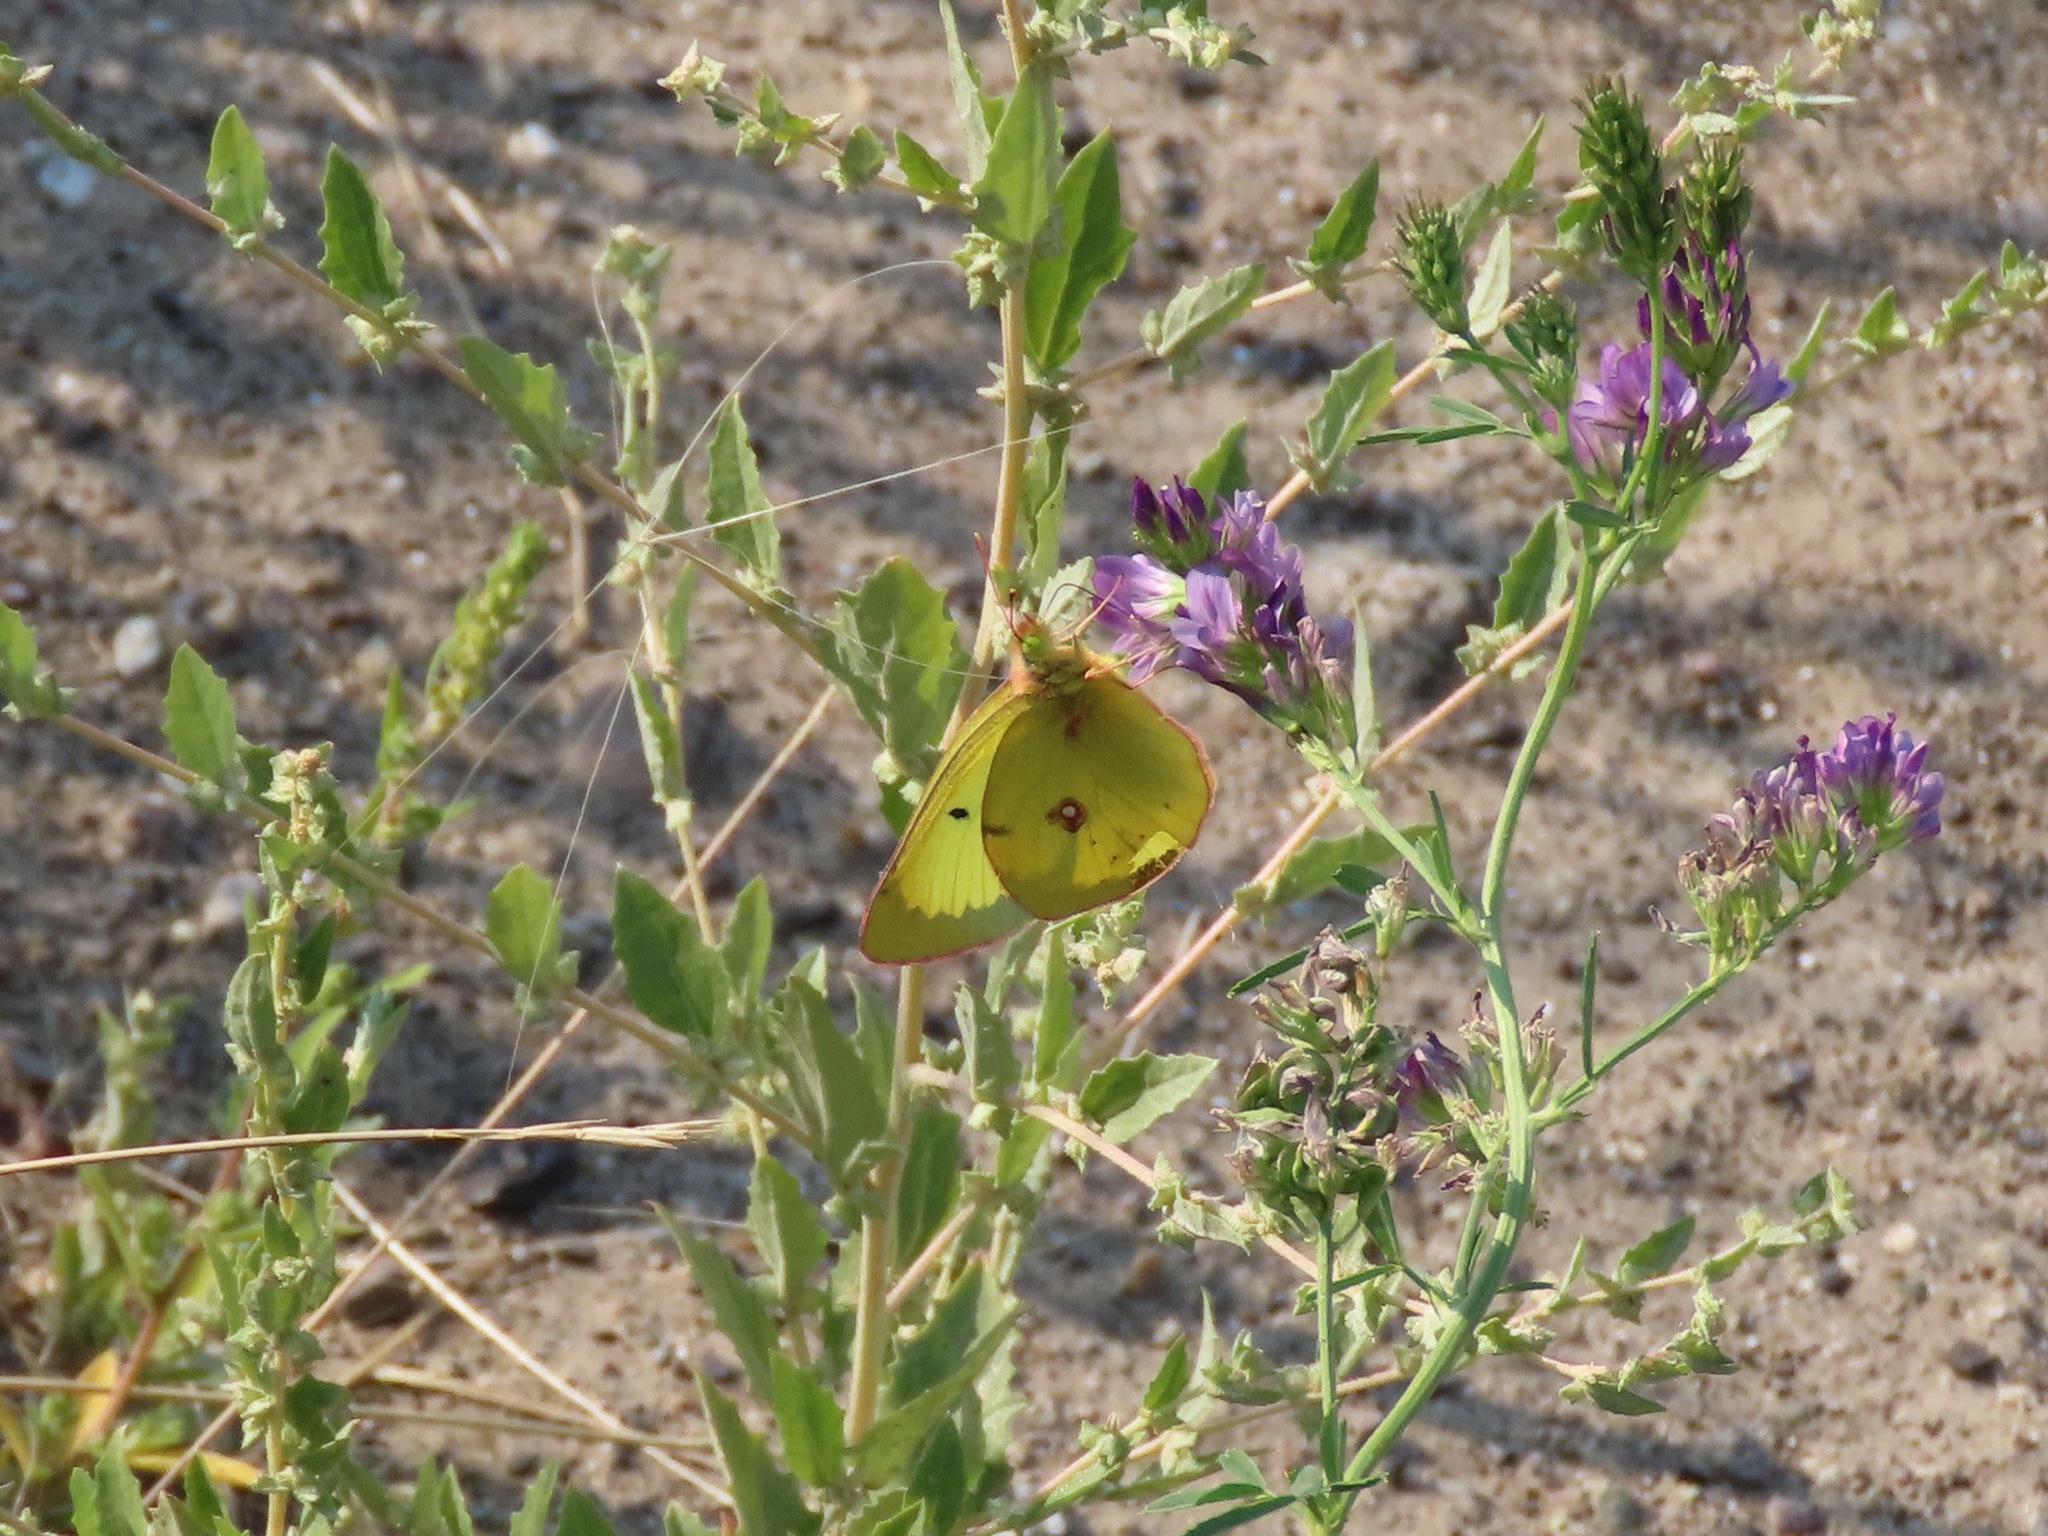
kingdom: Animalia
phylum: Arthropoda
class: Insecta
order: Lepidoptera
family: Pieridae
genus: Colias
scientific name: Colias philodice
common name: Clouded sulphur
